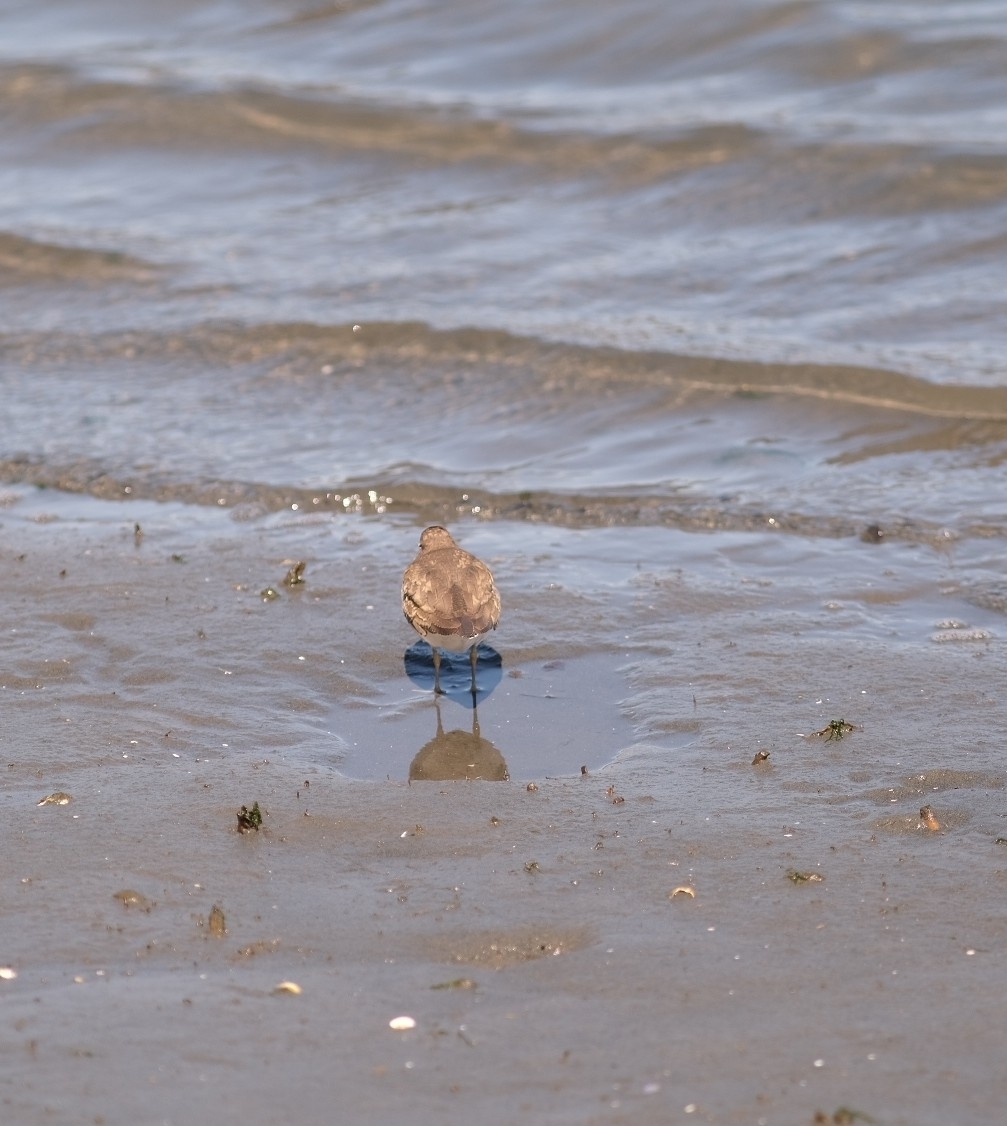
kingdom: Animalia
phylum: Chordata
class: Aves
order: Charadriiformes
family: Scolopacidae
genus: Actitis
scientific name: Actitis hypoleucos
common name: Common sandpiper
